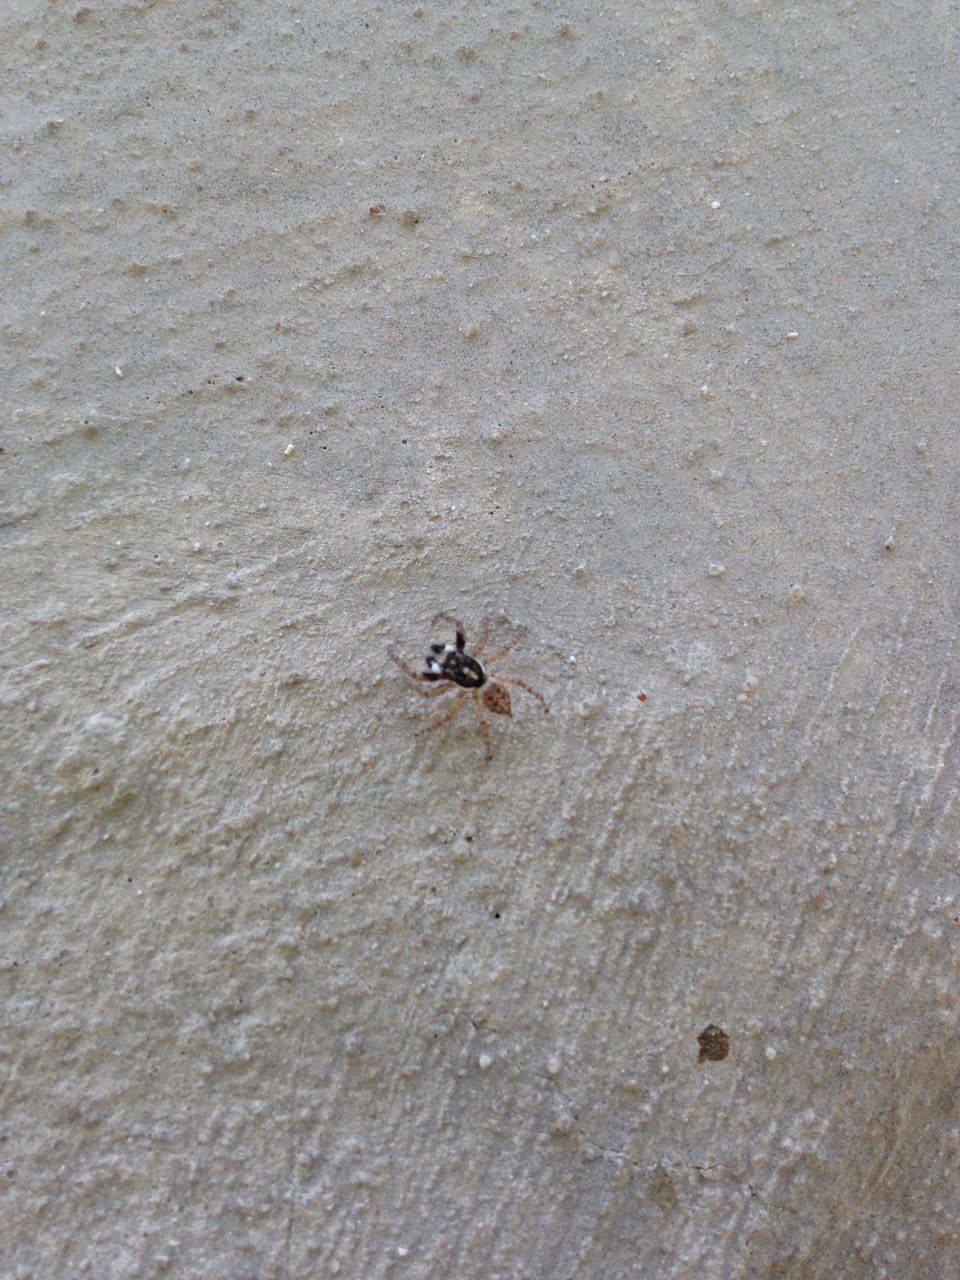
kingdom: Animalia
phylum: Arthropoda
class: Arachnida
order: Araneae
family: Salticidae
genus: Menemerus
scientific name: Menemerus semilimbatus
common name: Jumping spider
